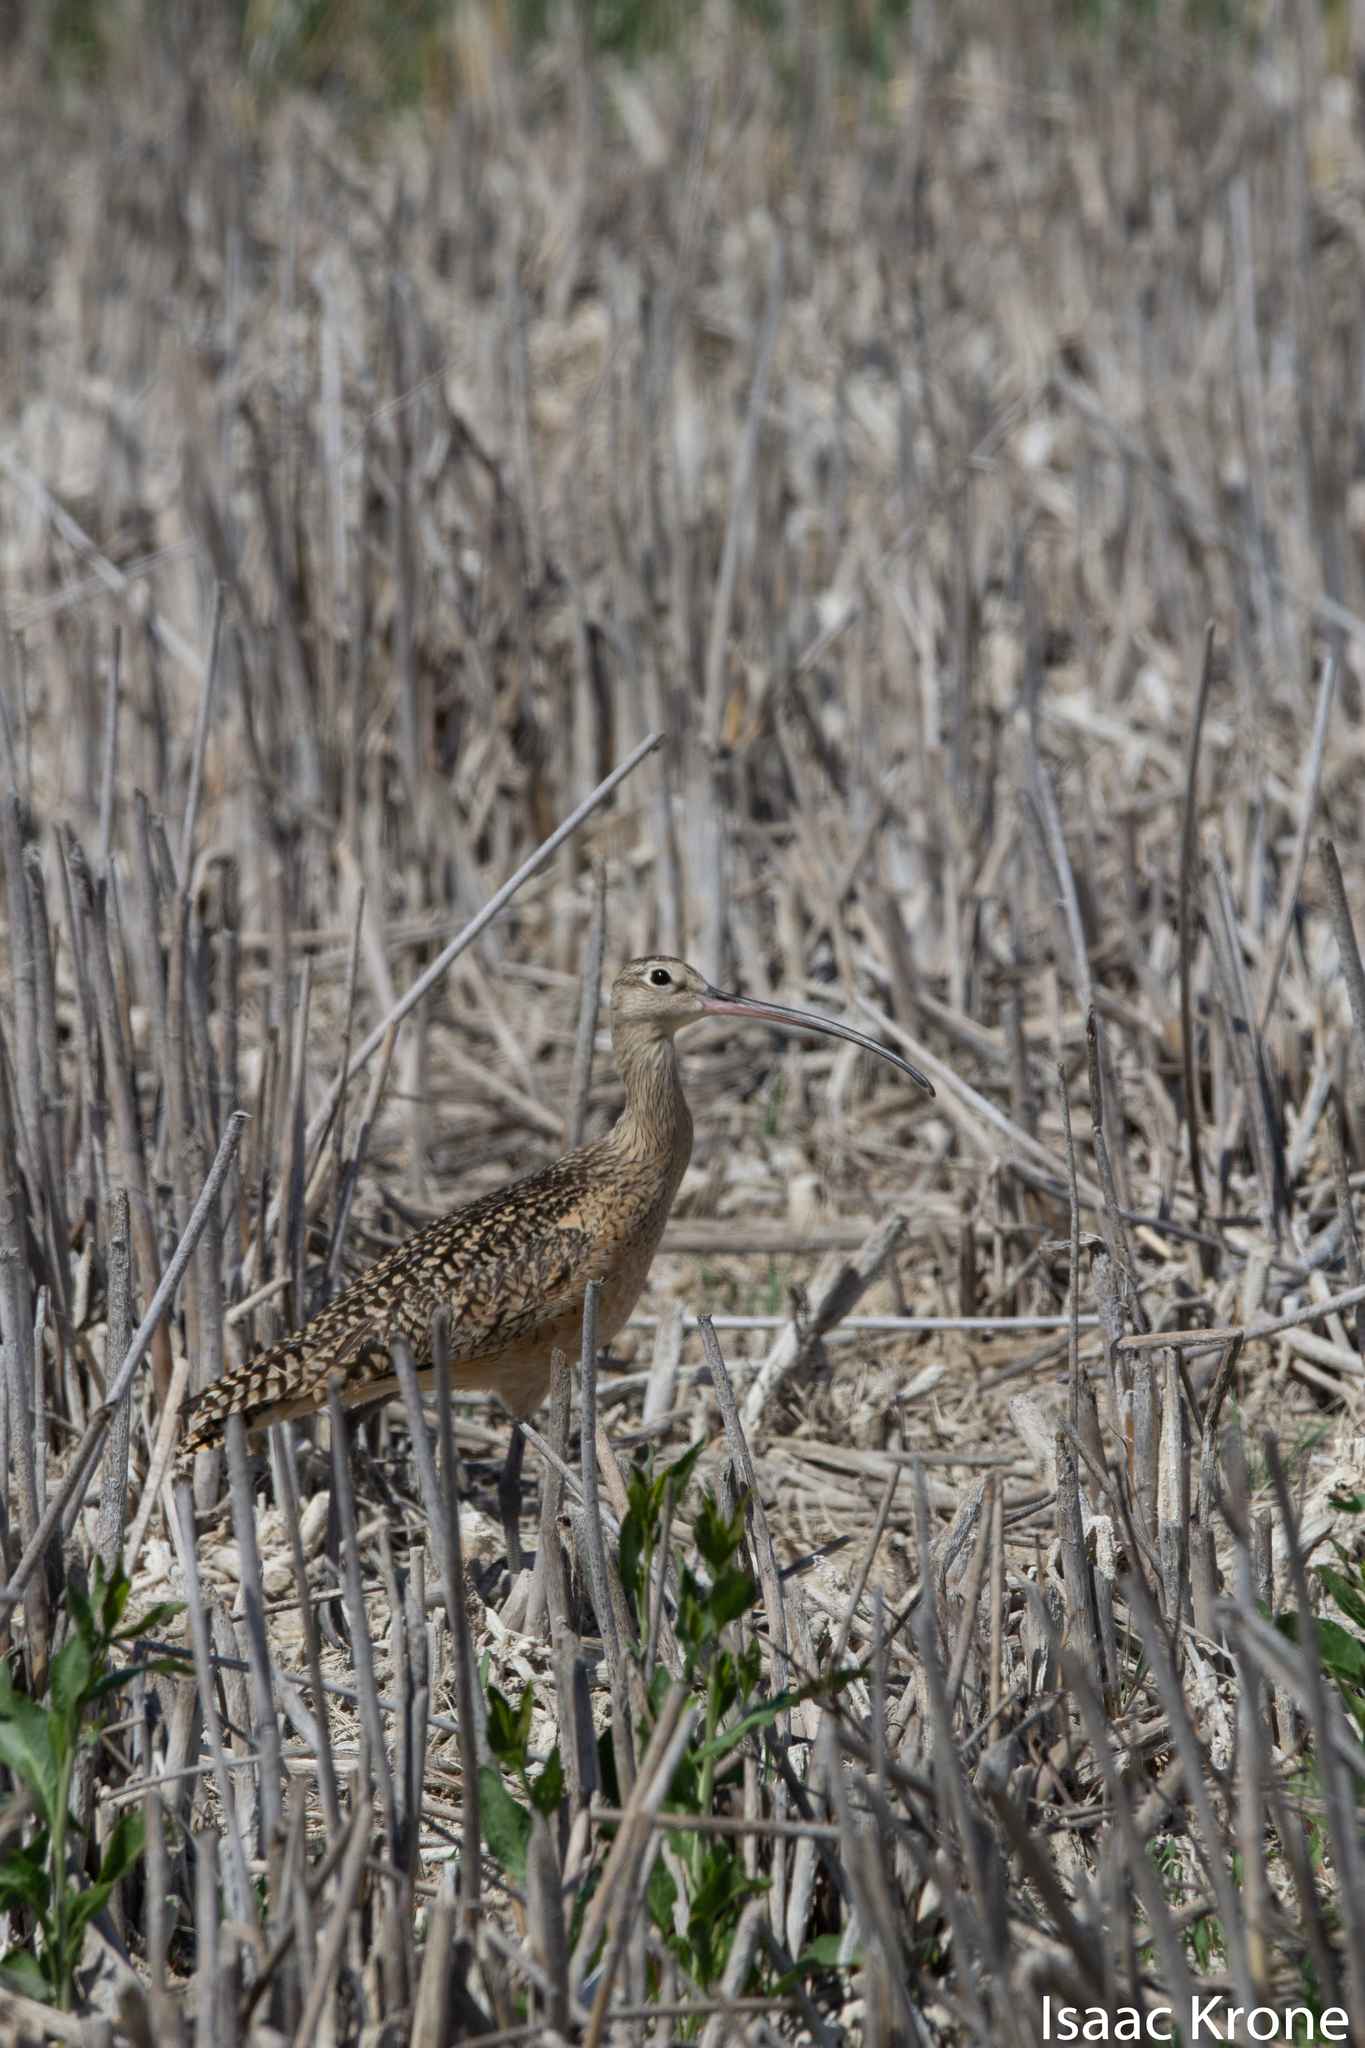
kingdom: Animalia
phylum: Chordata
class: Aves
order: Charadriiformes
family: Scolopacidae
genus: Numenius
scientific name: Numenius americanus
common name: Long-billed curlew
